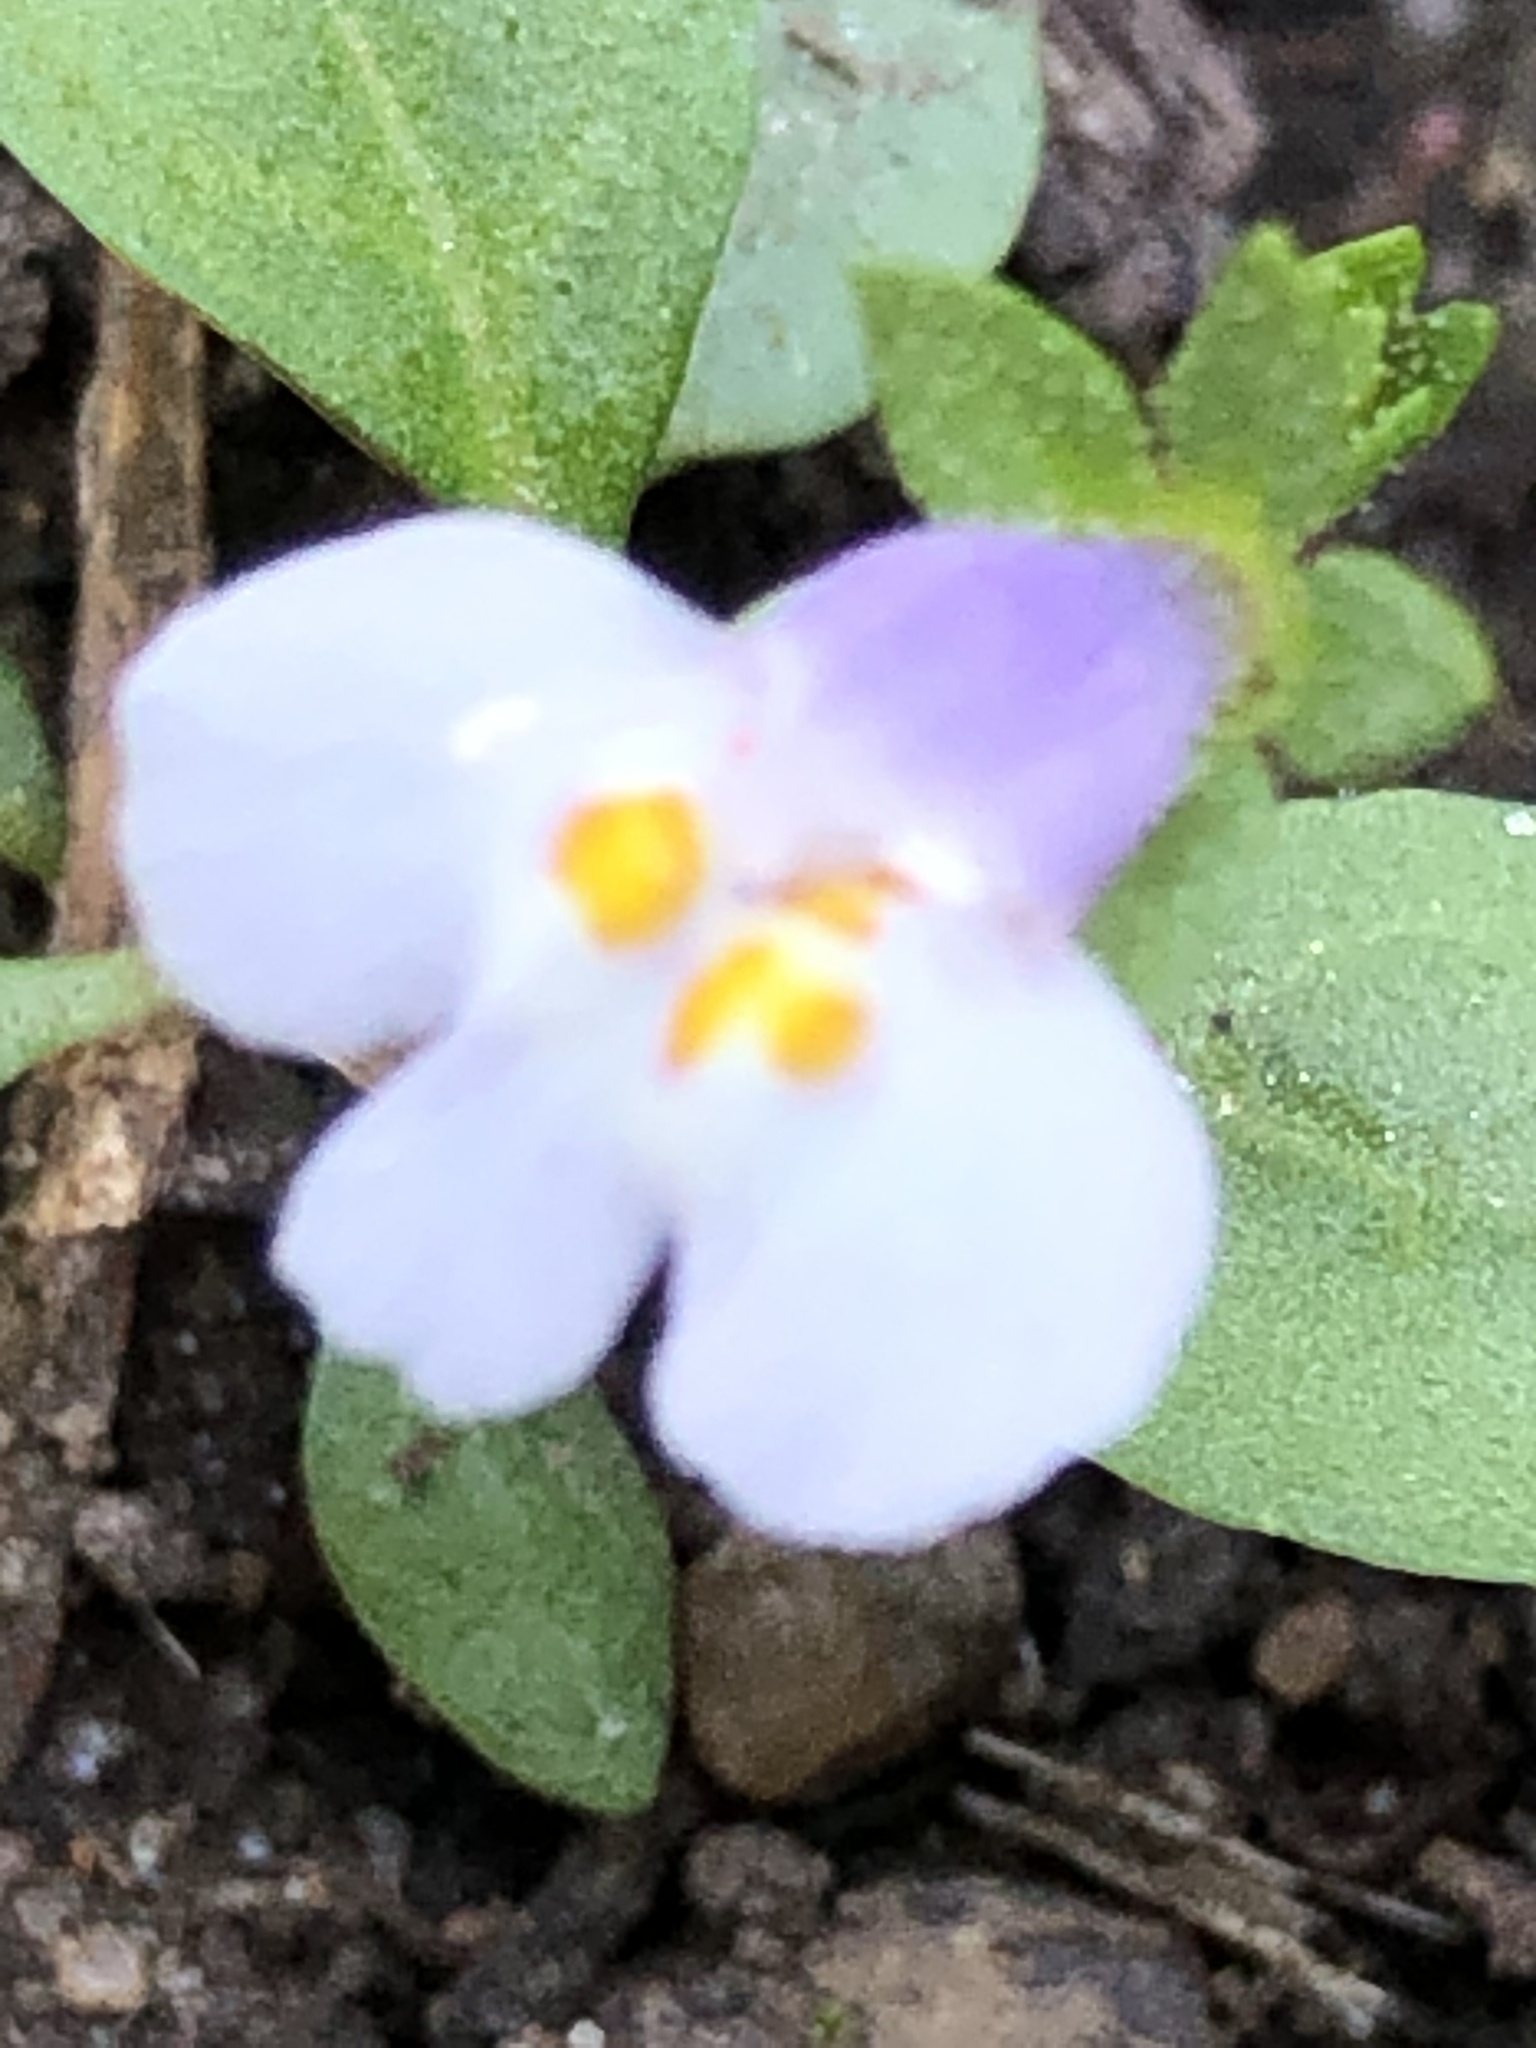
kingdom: Plantae
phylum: Tracheophyta
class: Magnoliopsida
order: Lamiales
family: Mazaceae
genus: Mazus
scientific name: Mazus pumilus
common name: Japanese mazus
